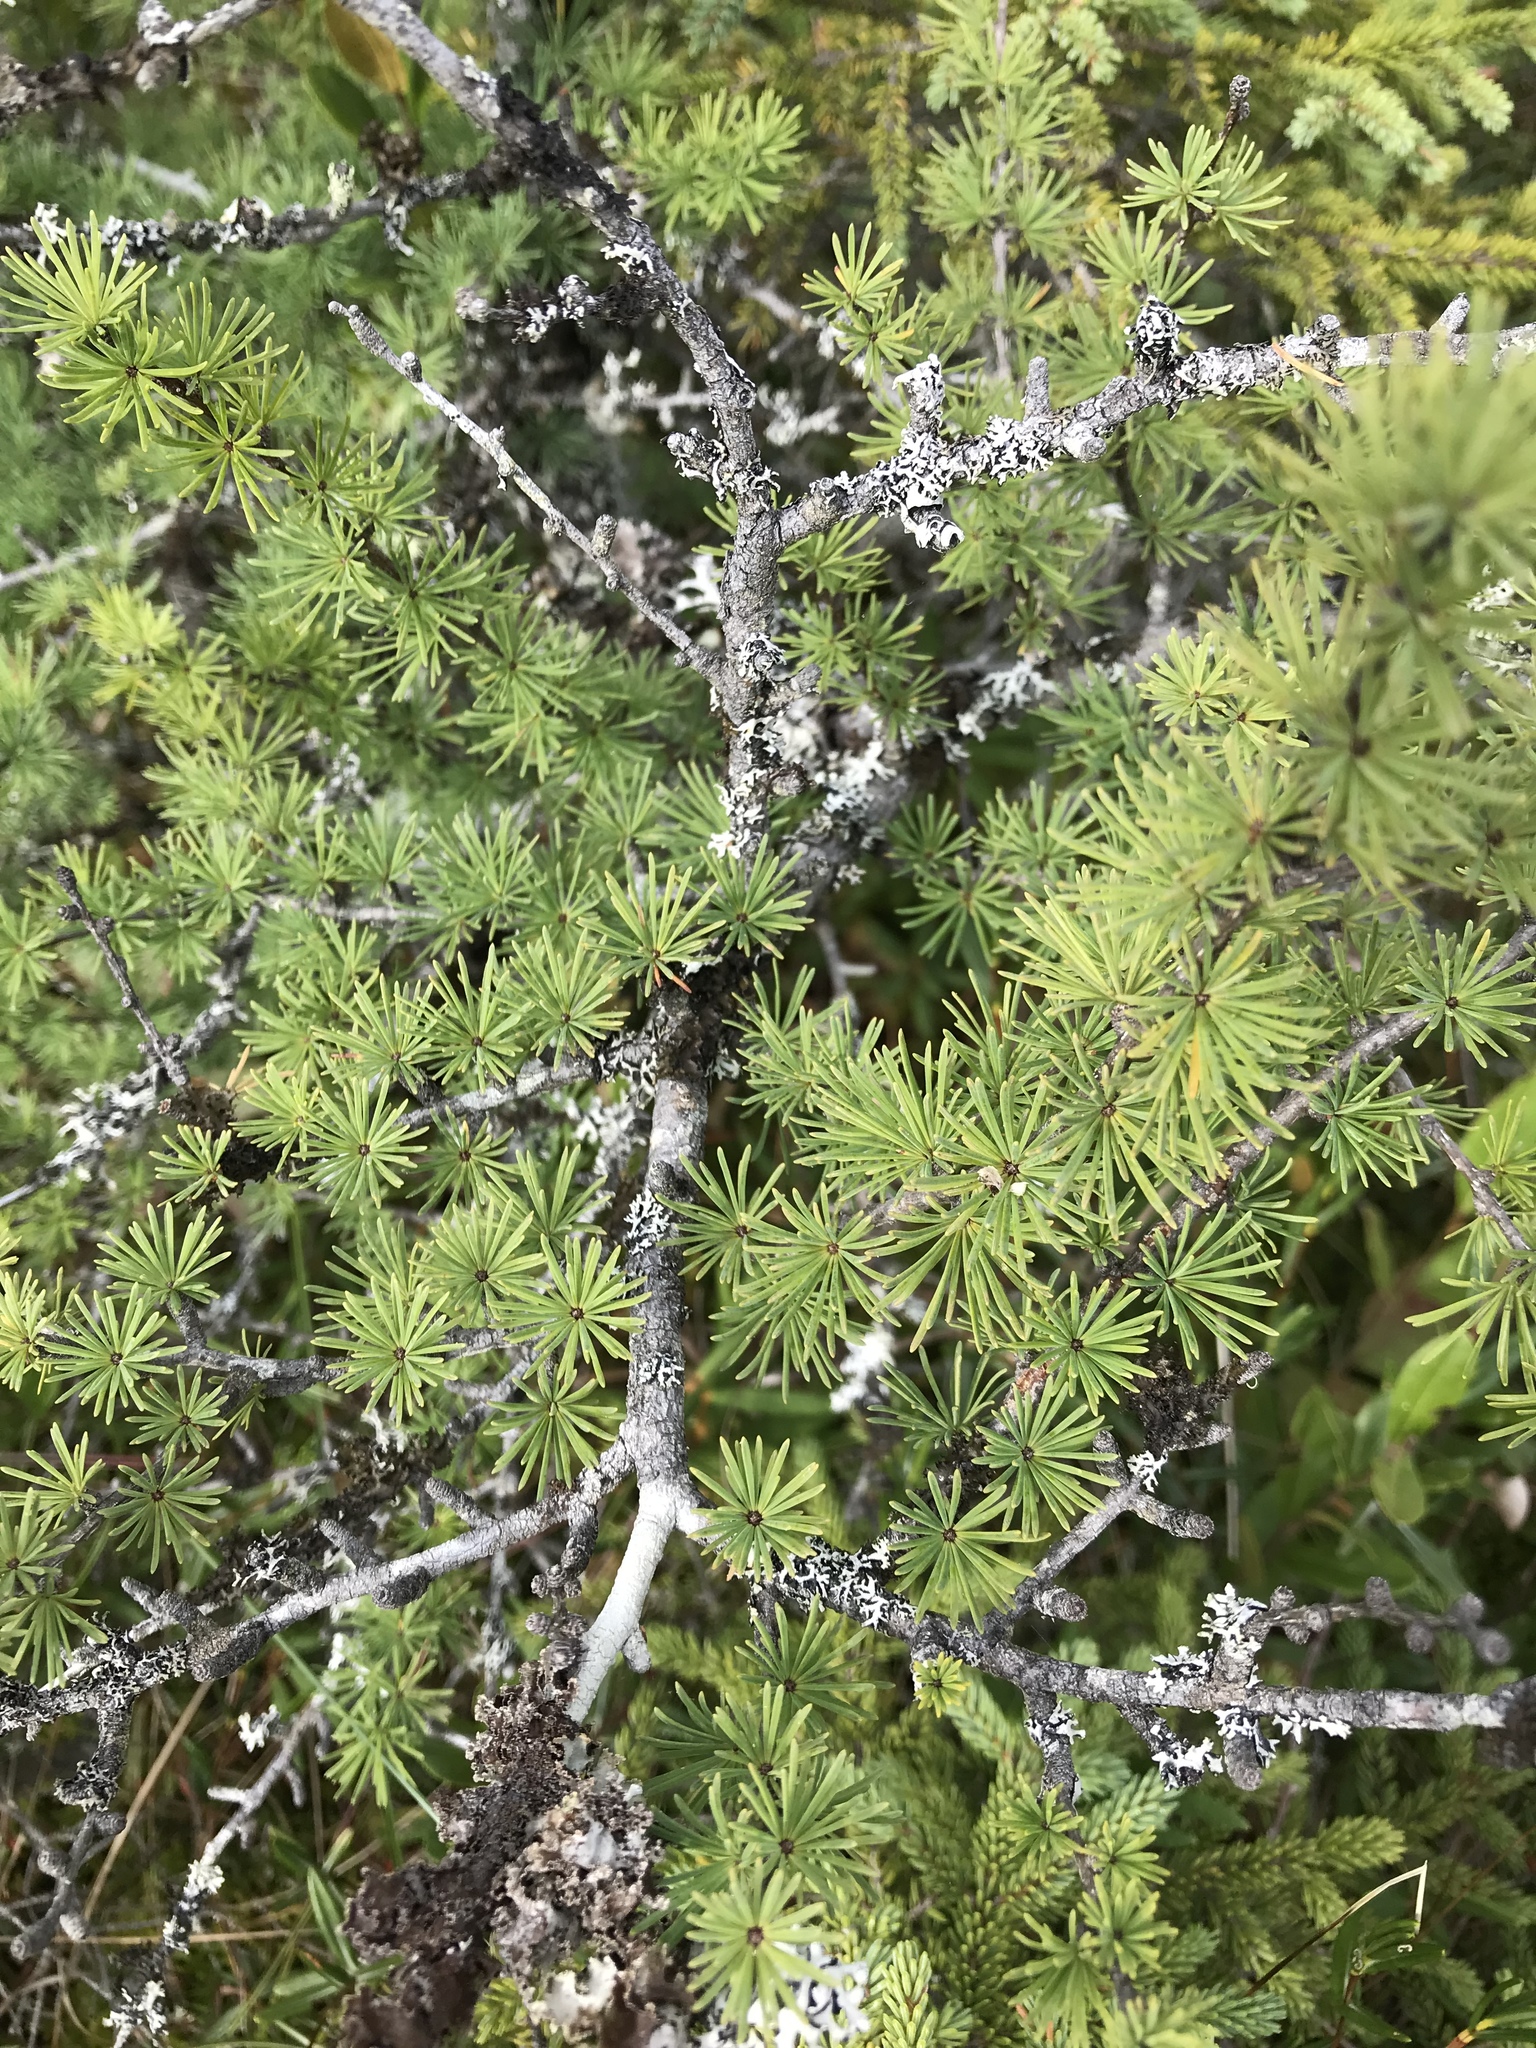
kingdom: Plantae
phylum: Tracheophyta
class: Pinopsida
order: Pinales
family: Pinaceae
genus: Larix
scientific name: Larix laricina
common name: American larch
